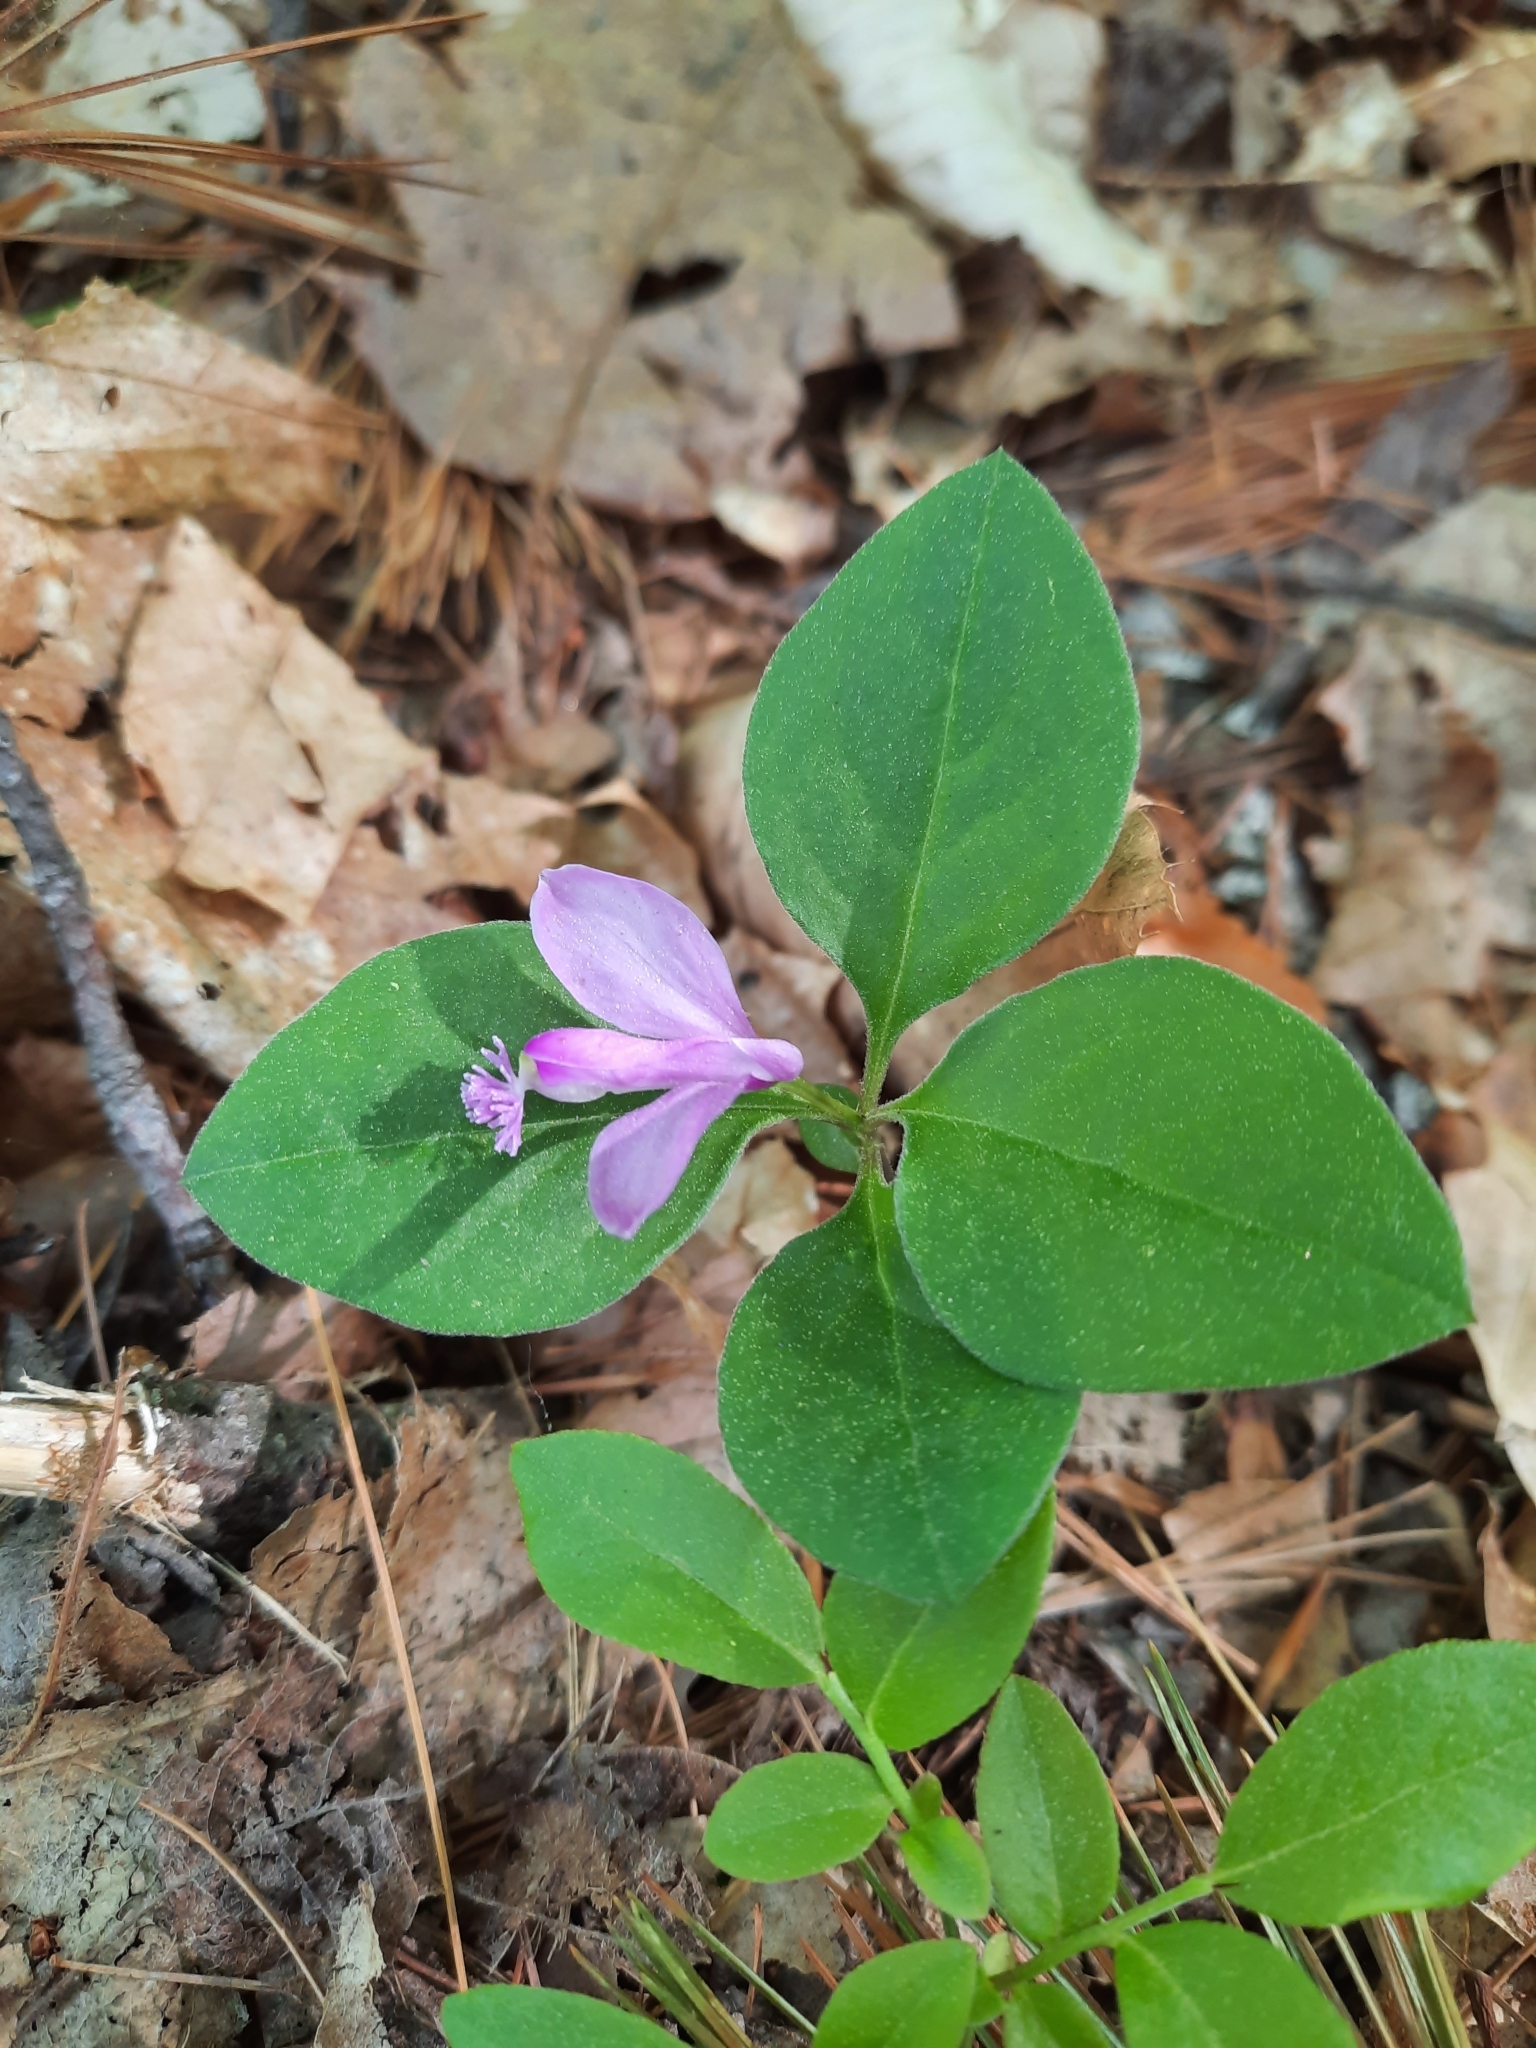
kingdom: Plantae
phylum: Tracheophyta
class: Magnoliopsida
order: Fabales
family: Polygalaceae
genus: Polygaloides
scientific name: Polygaloides paucifolia
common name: Bird-on-the-wing
